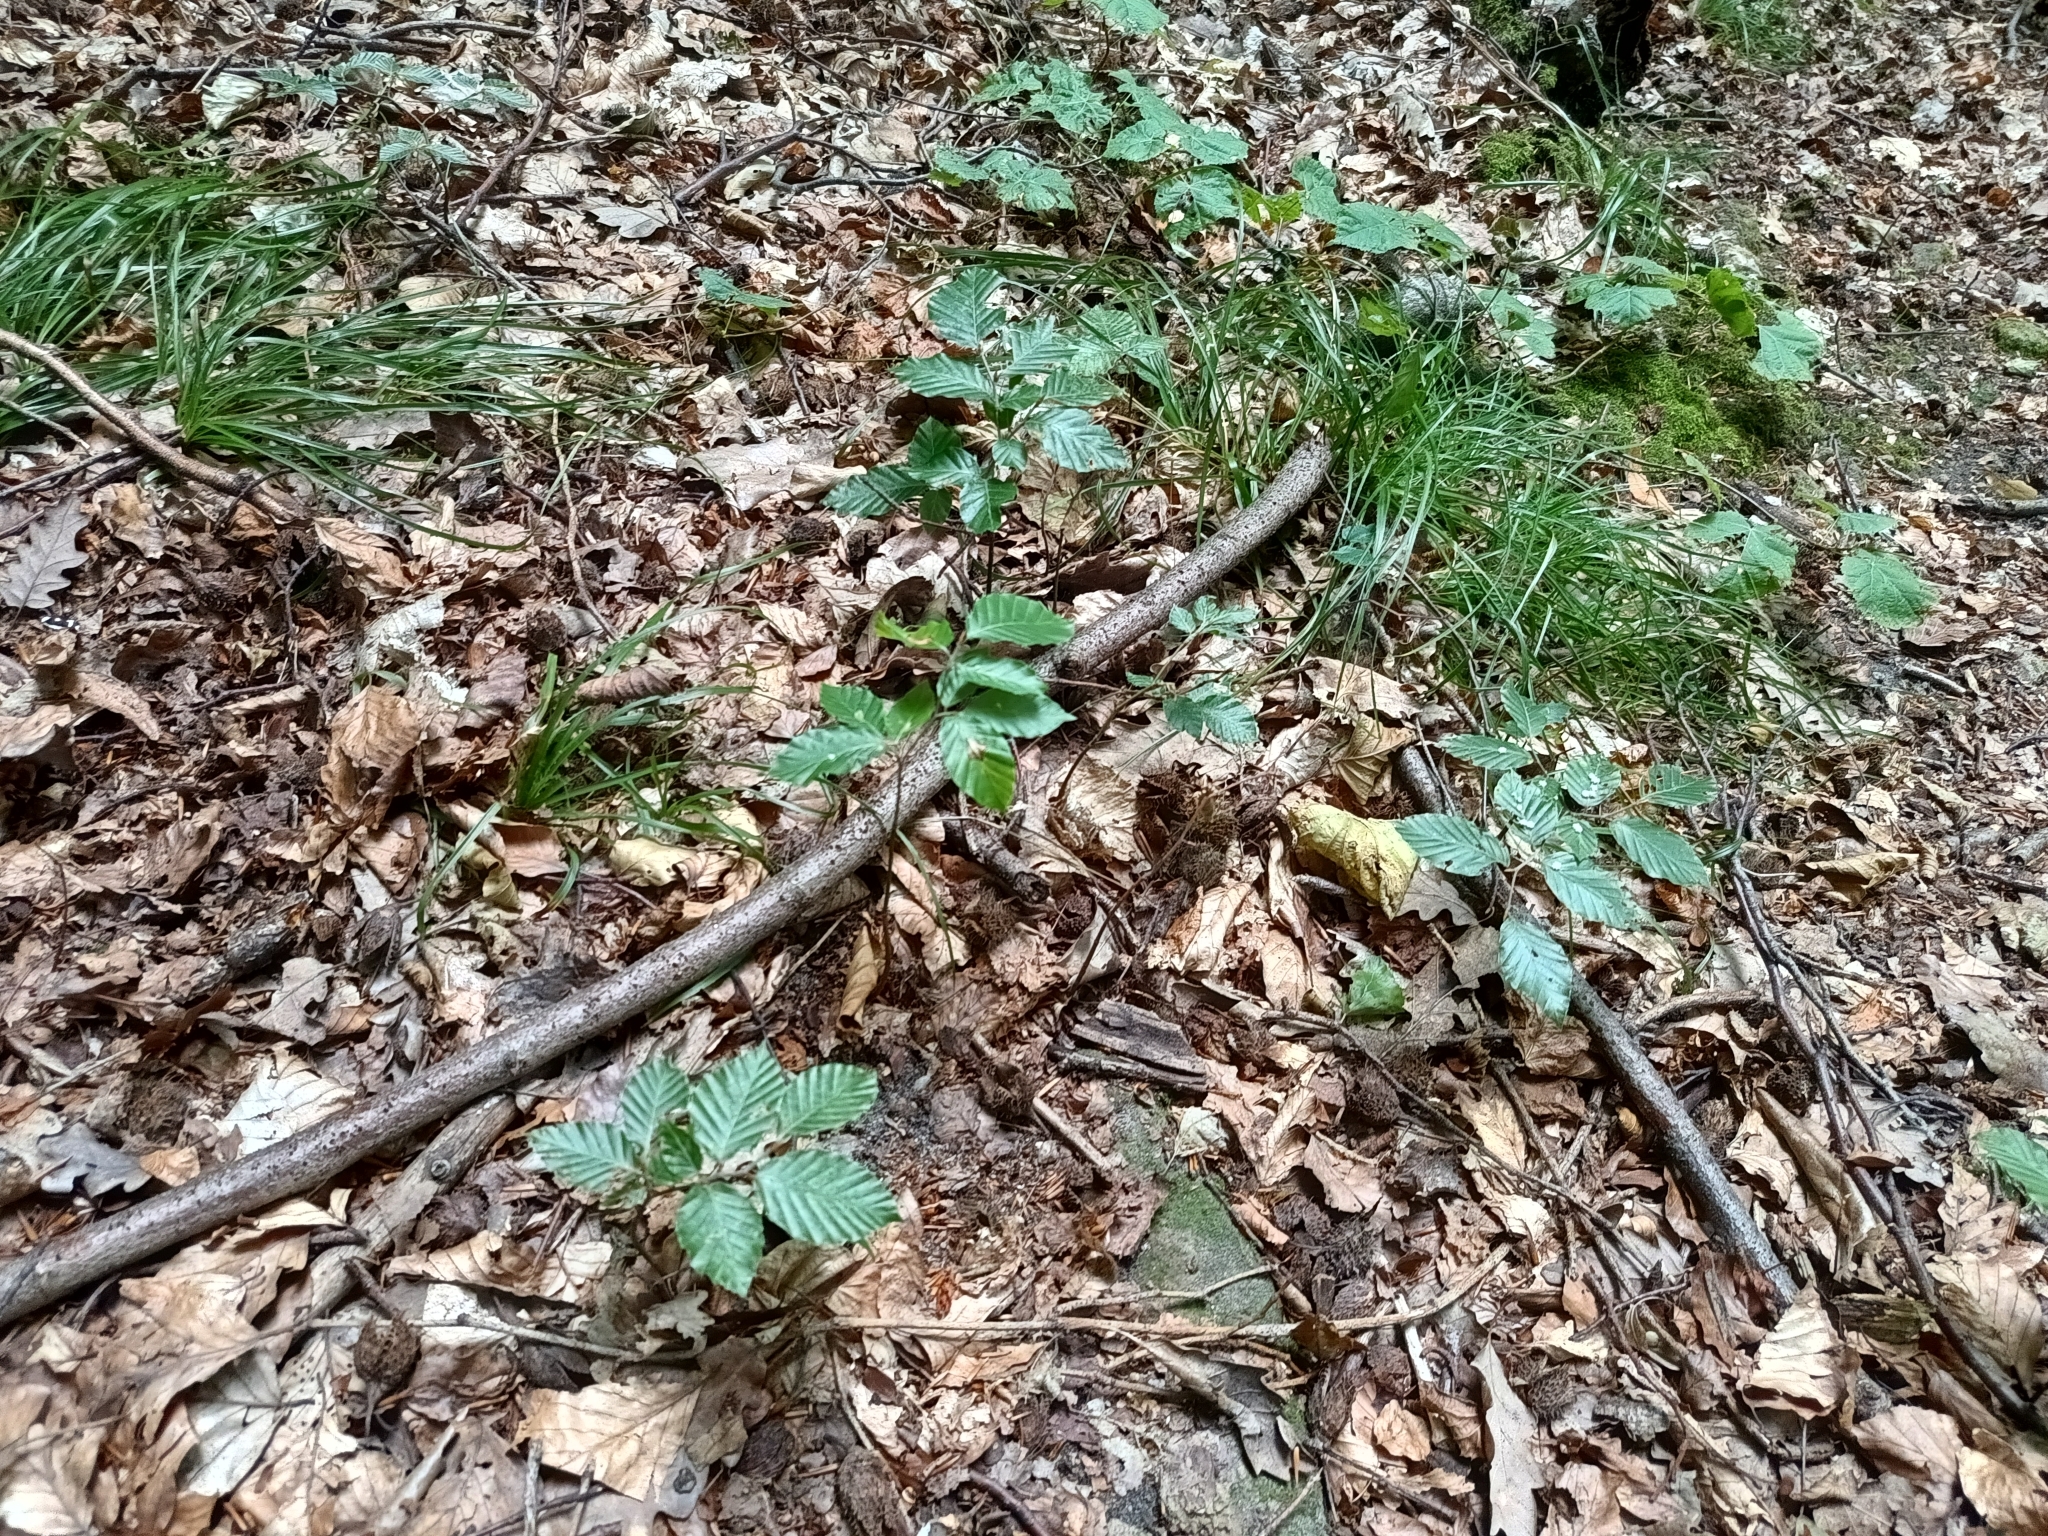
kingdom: Plantae
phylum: Tracheophyta
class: Magnoliopsida
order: Fagales
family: Fagaceae
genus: Fagus
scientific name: Fagus sylvatica
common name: Beech
